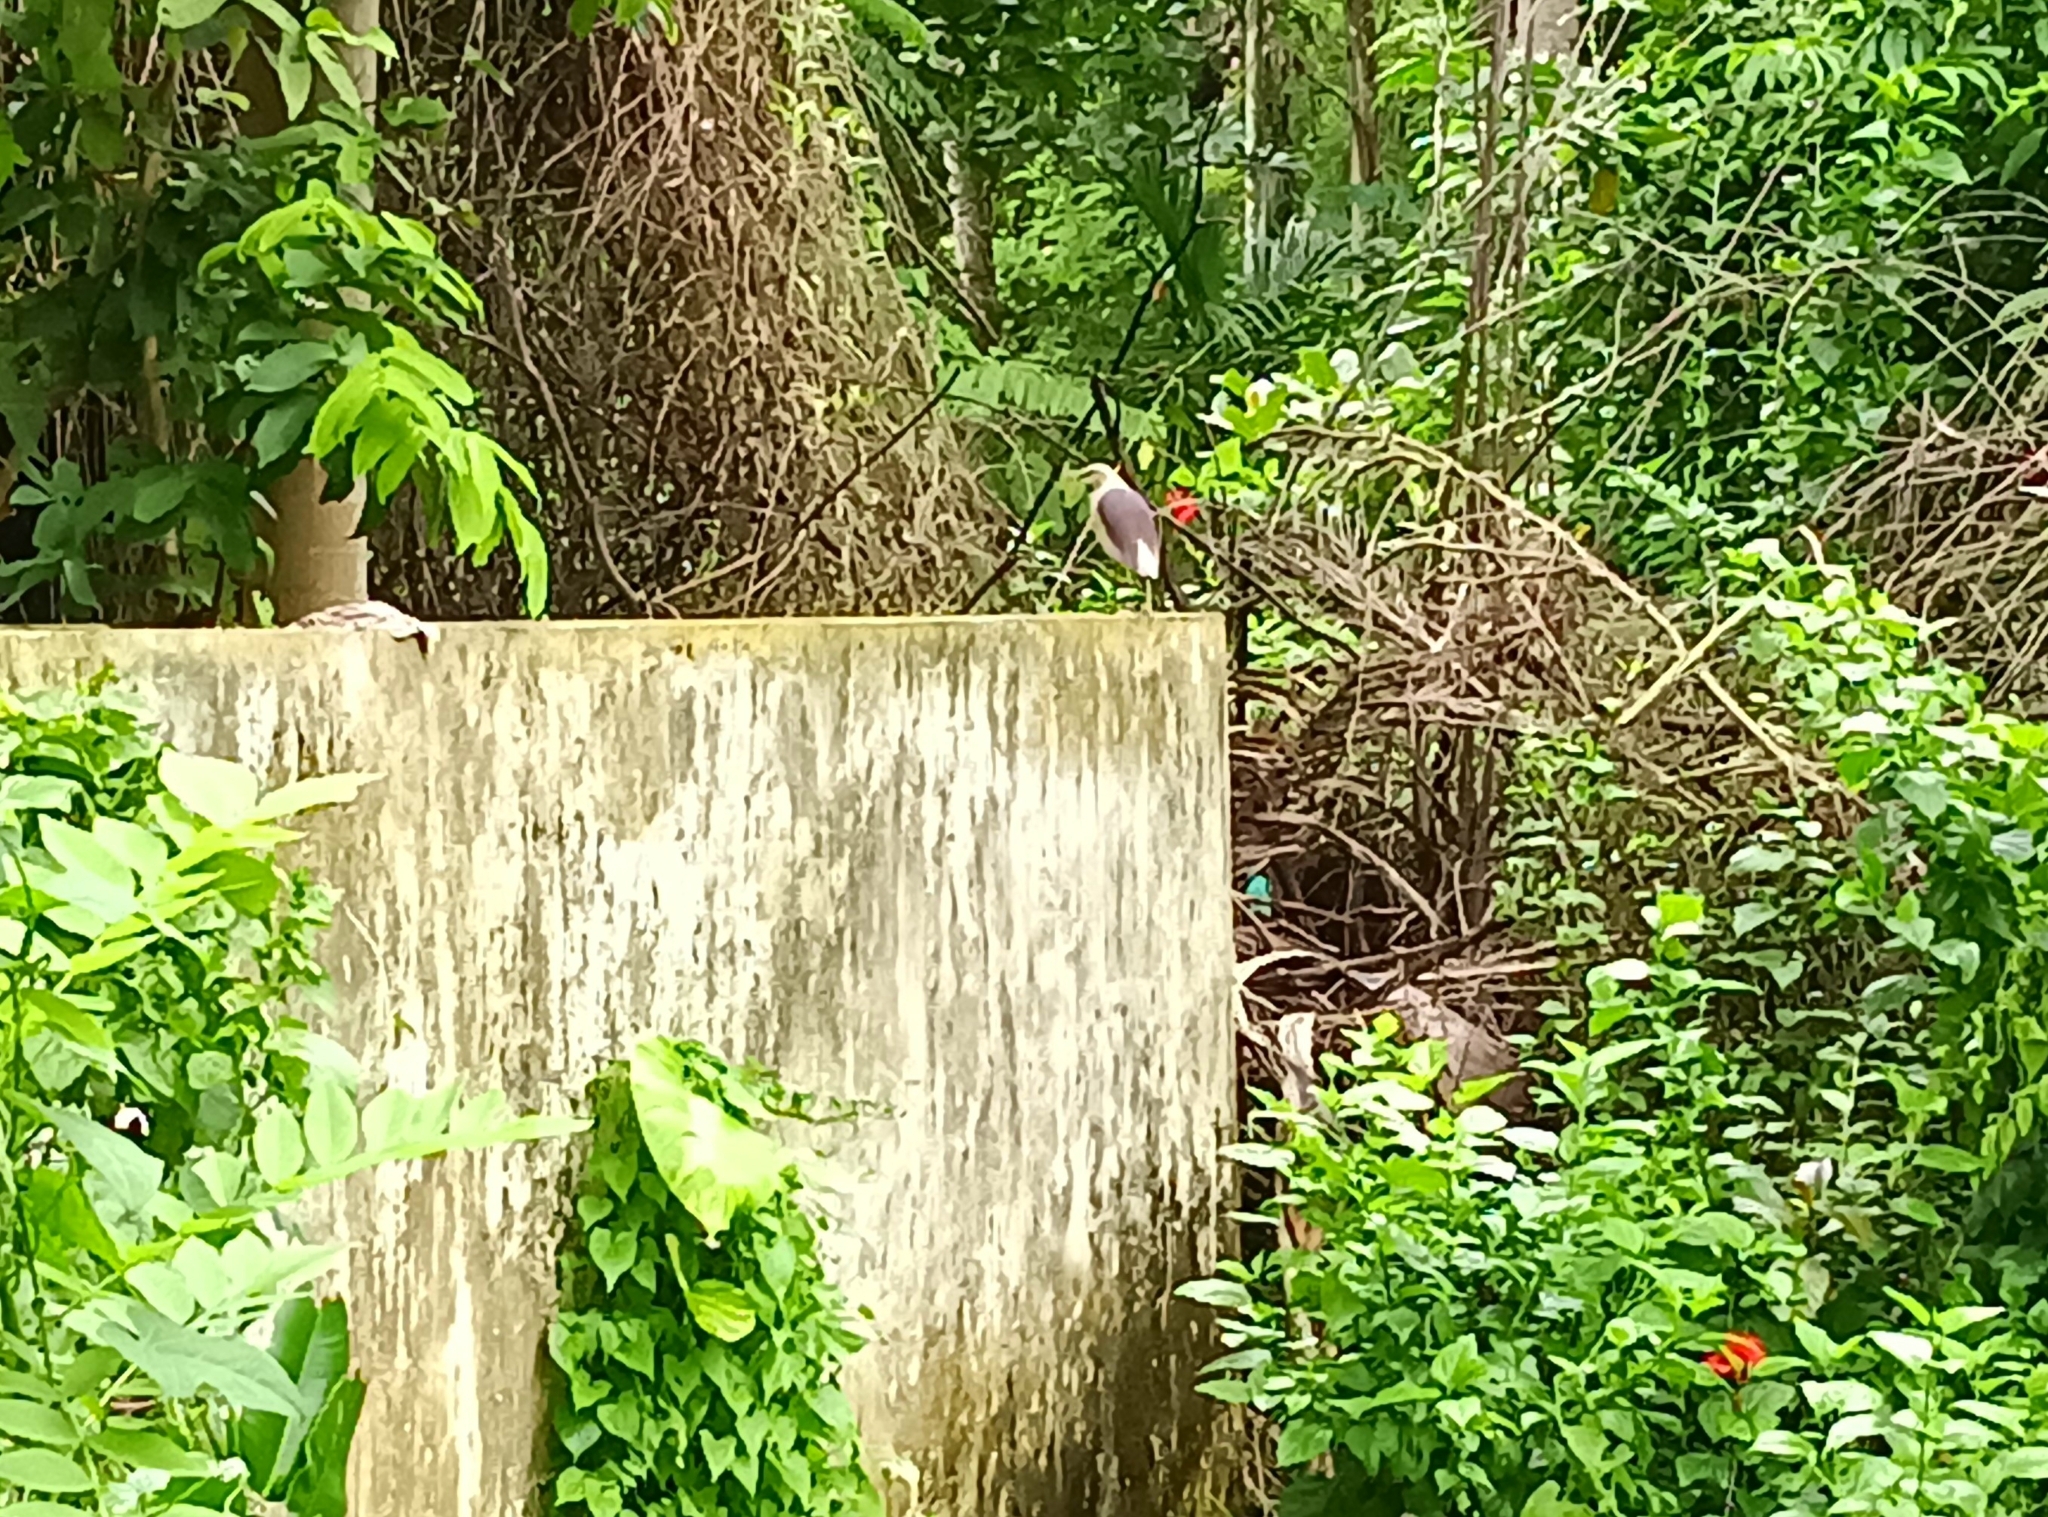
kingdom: Animalia
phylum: Chordata
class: Aves
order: Pelecaniformes
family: Ardeidae
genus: Ardeola
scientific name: Ardeola grayii
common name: Indian pond heron
